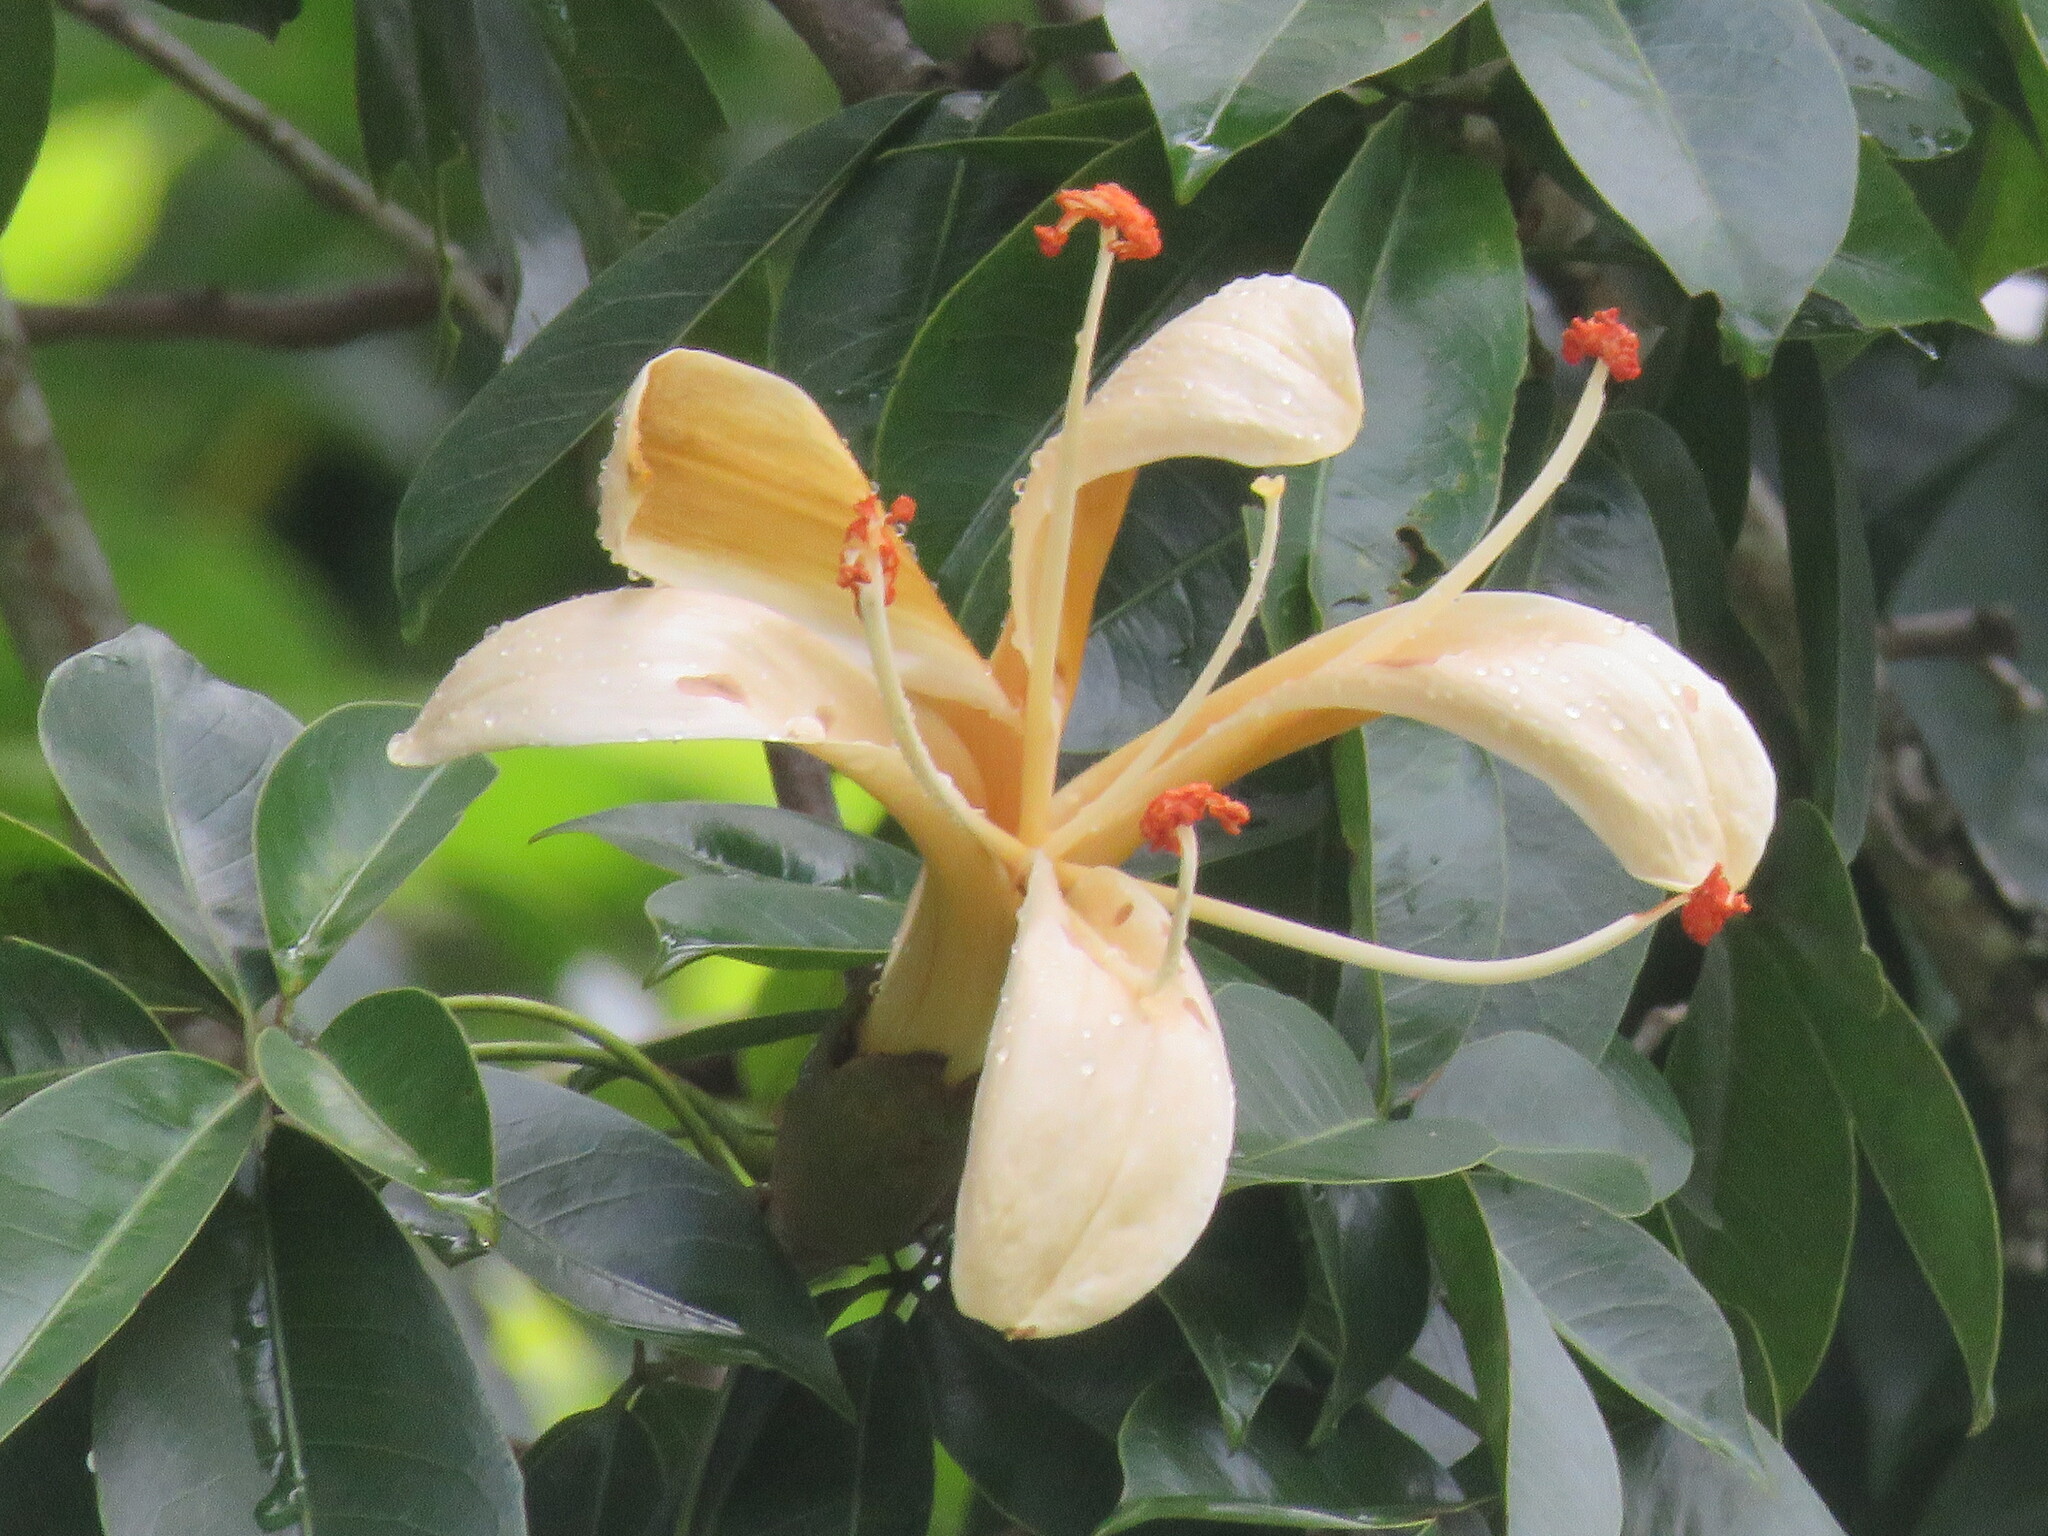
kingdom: Plantae
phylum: Tracheophyta
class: Magnoliopsida
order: Malvales
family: Malvaceae
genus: Ceiba
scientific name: Ceiba samauma
